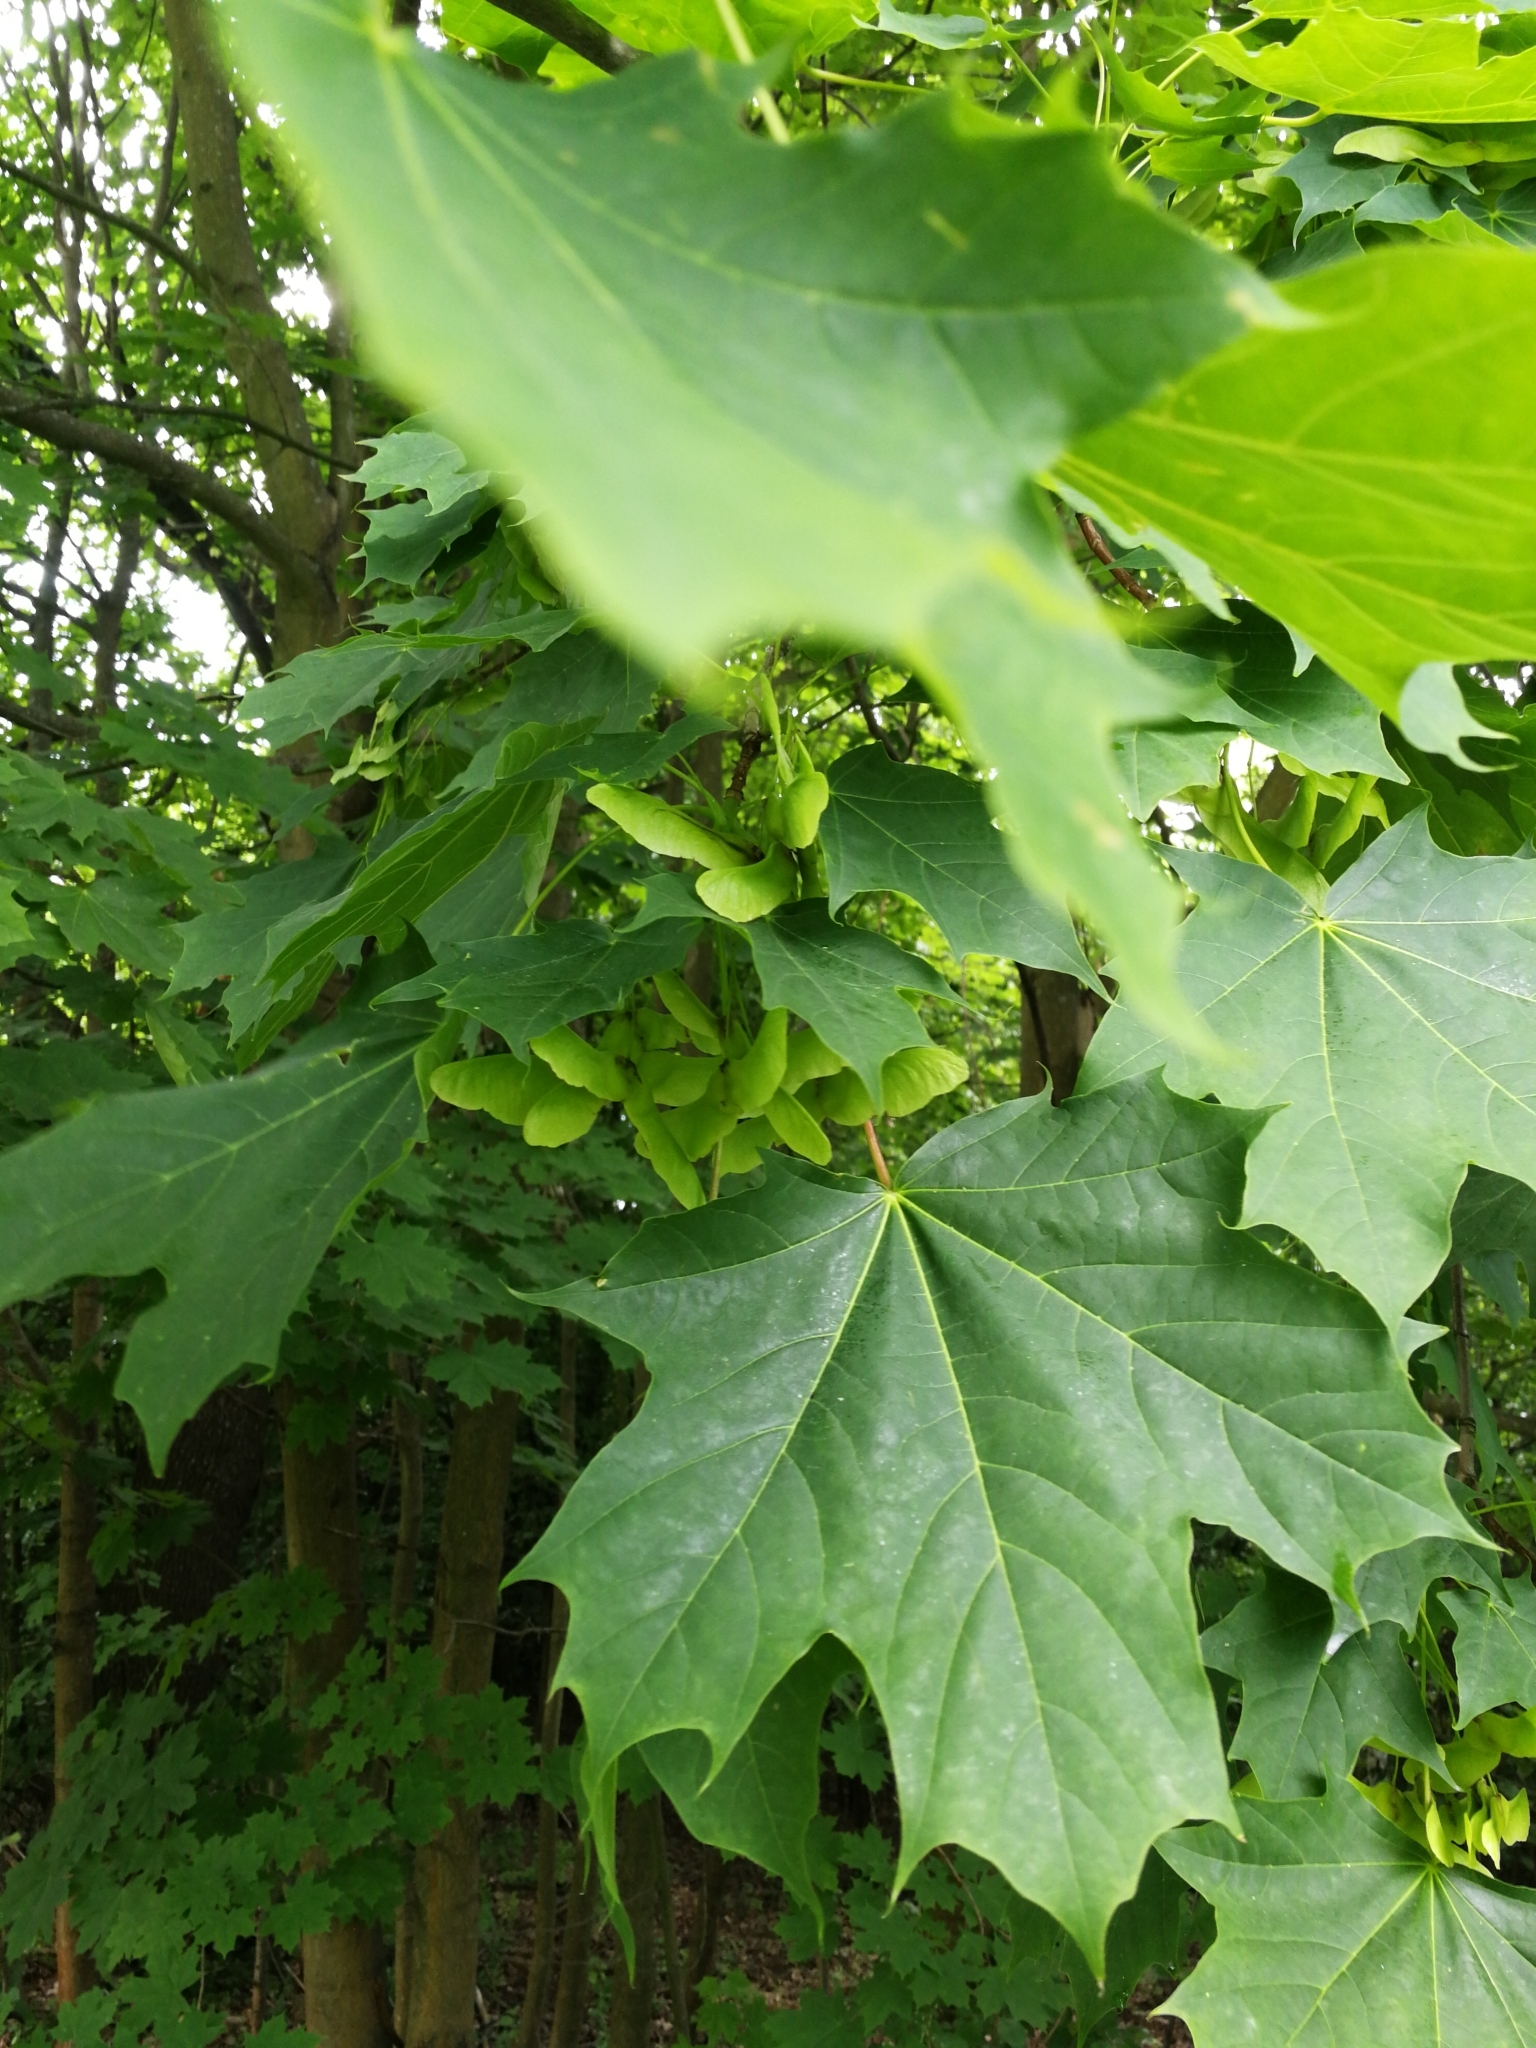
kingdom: Plantae
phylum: Tracheophyta
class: Magnoliopsida
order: Sapindales
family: Sapindaceae
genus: Acer
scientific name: Acer platanoides
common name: Norway maple
